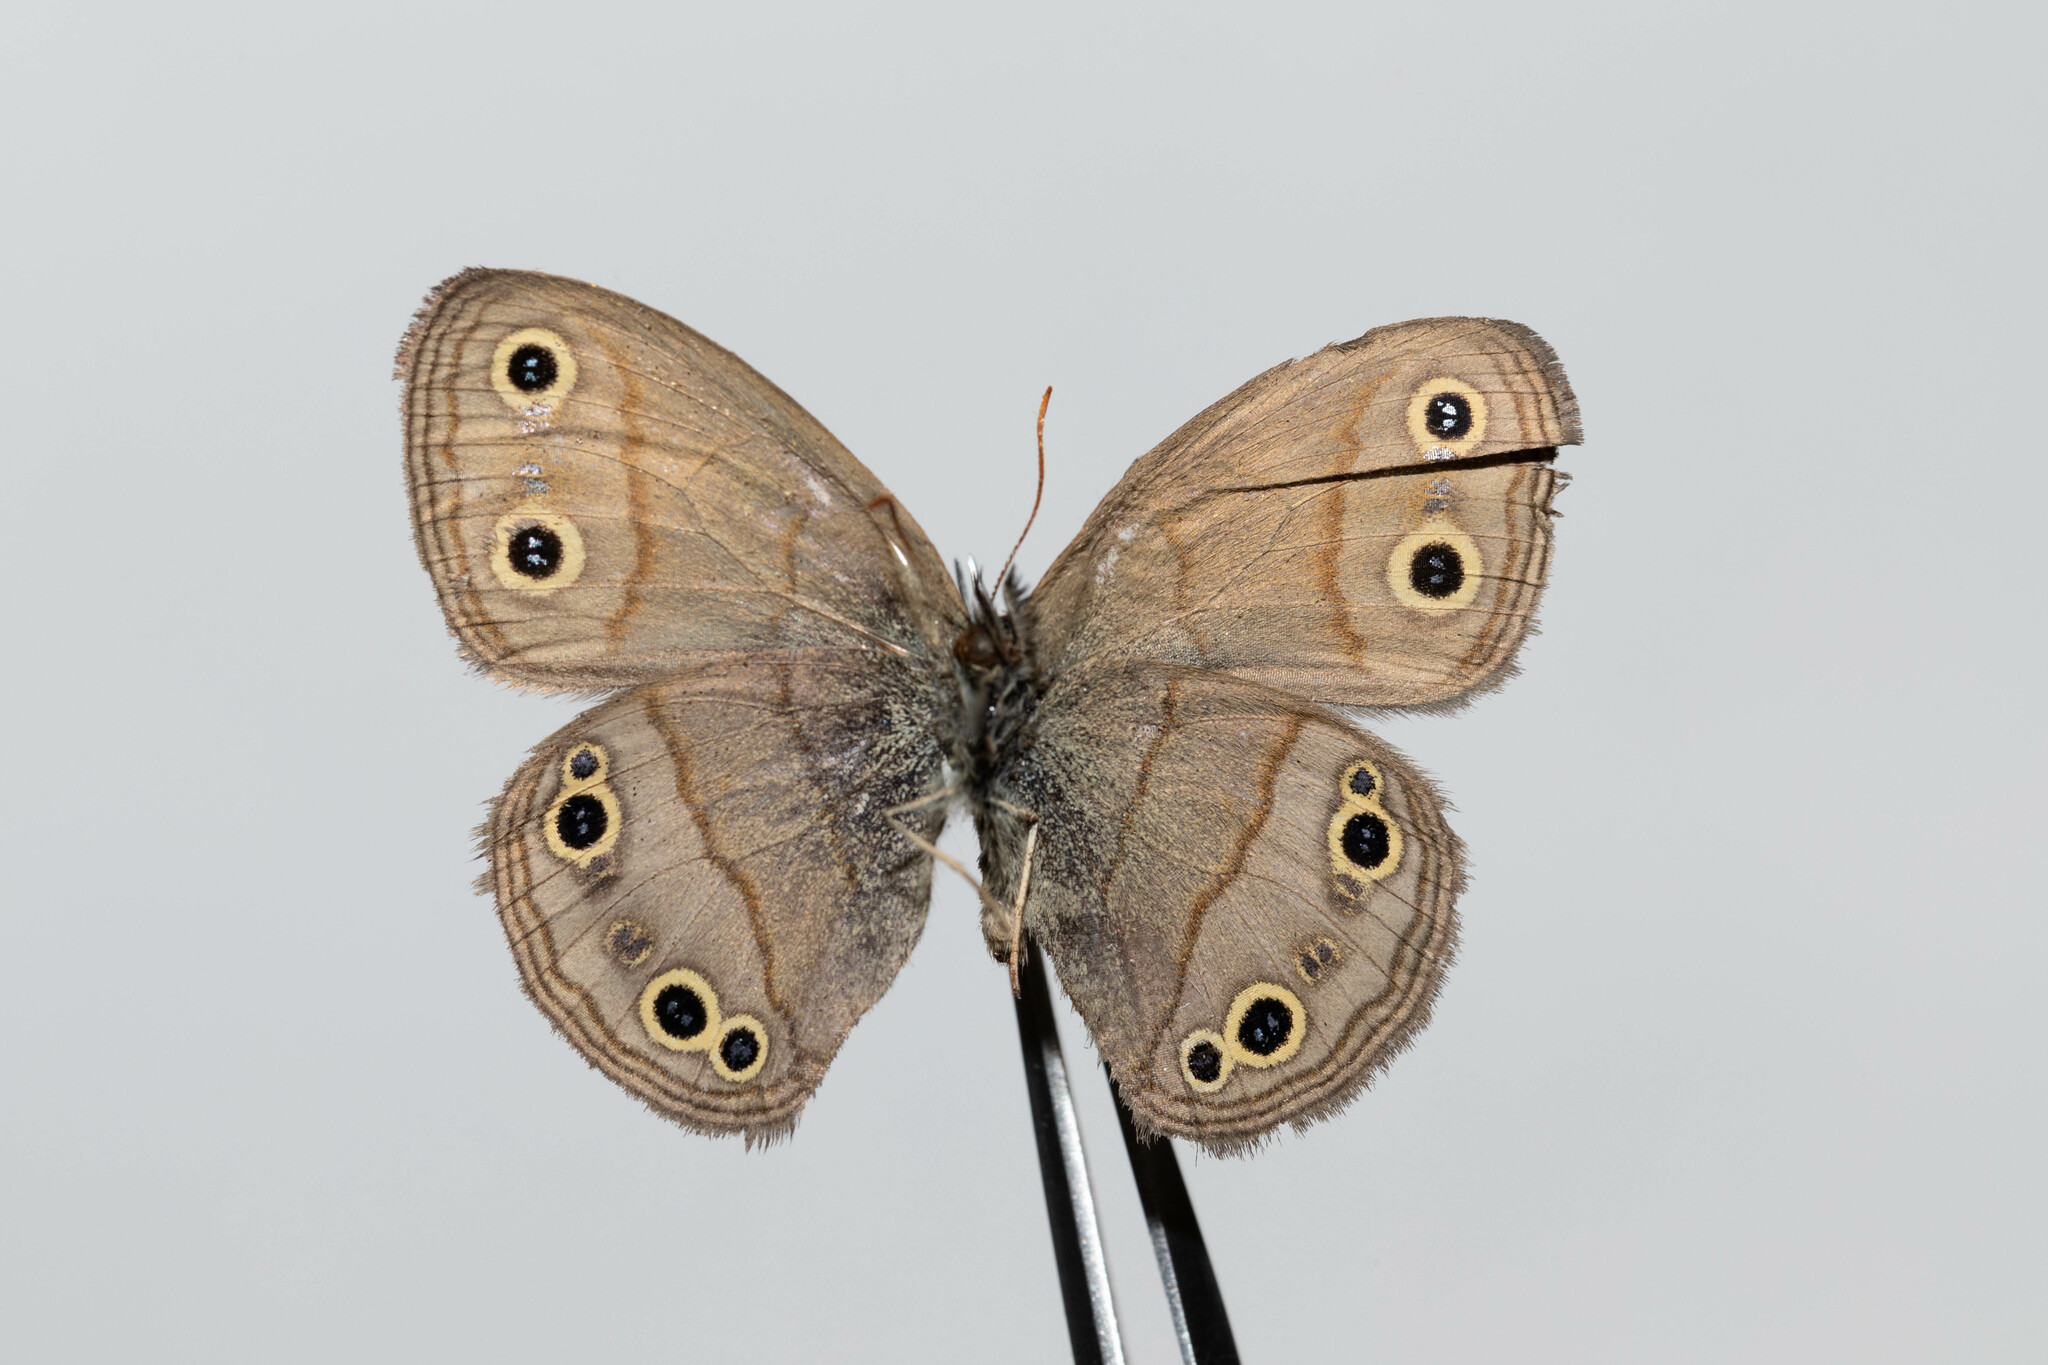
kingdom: Animalia
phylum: Arthropoda
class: Insecta
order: Lepidoptera
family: Nymphalidae
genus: Euptychia
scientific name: Euptychia cymela
